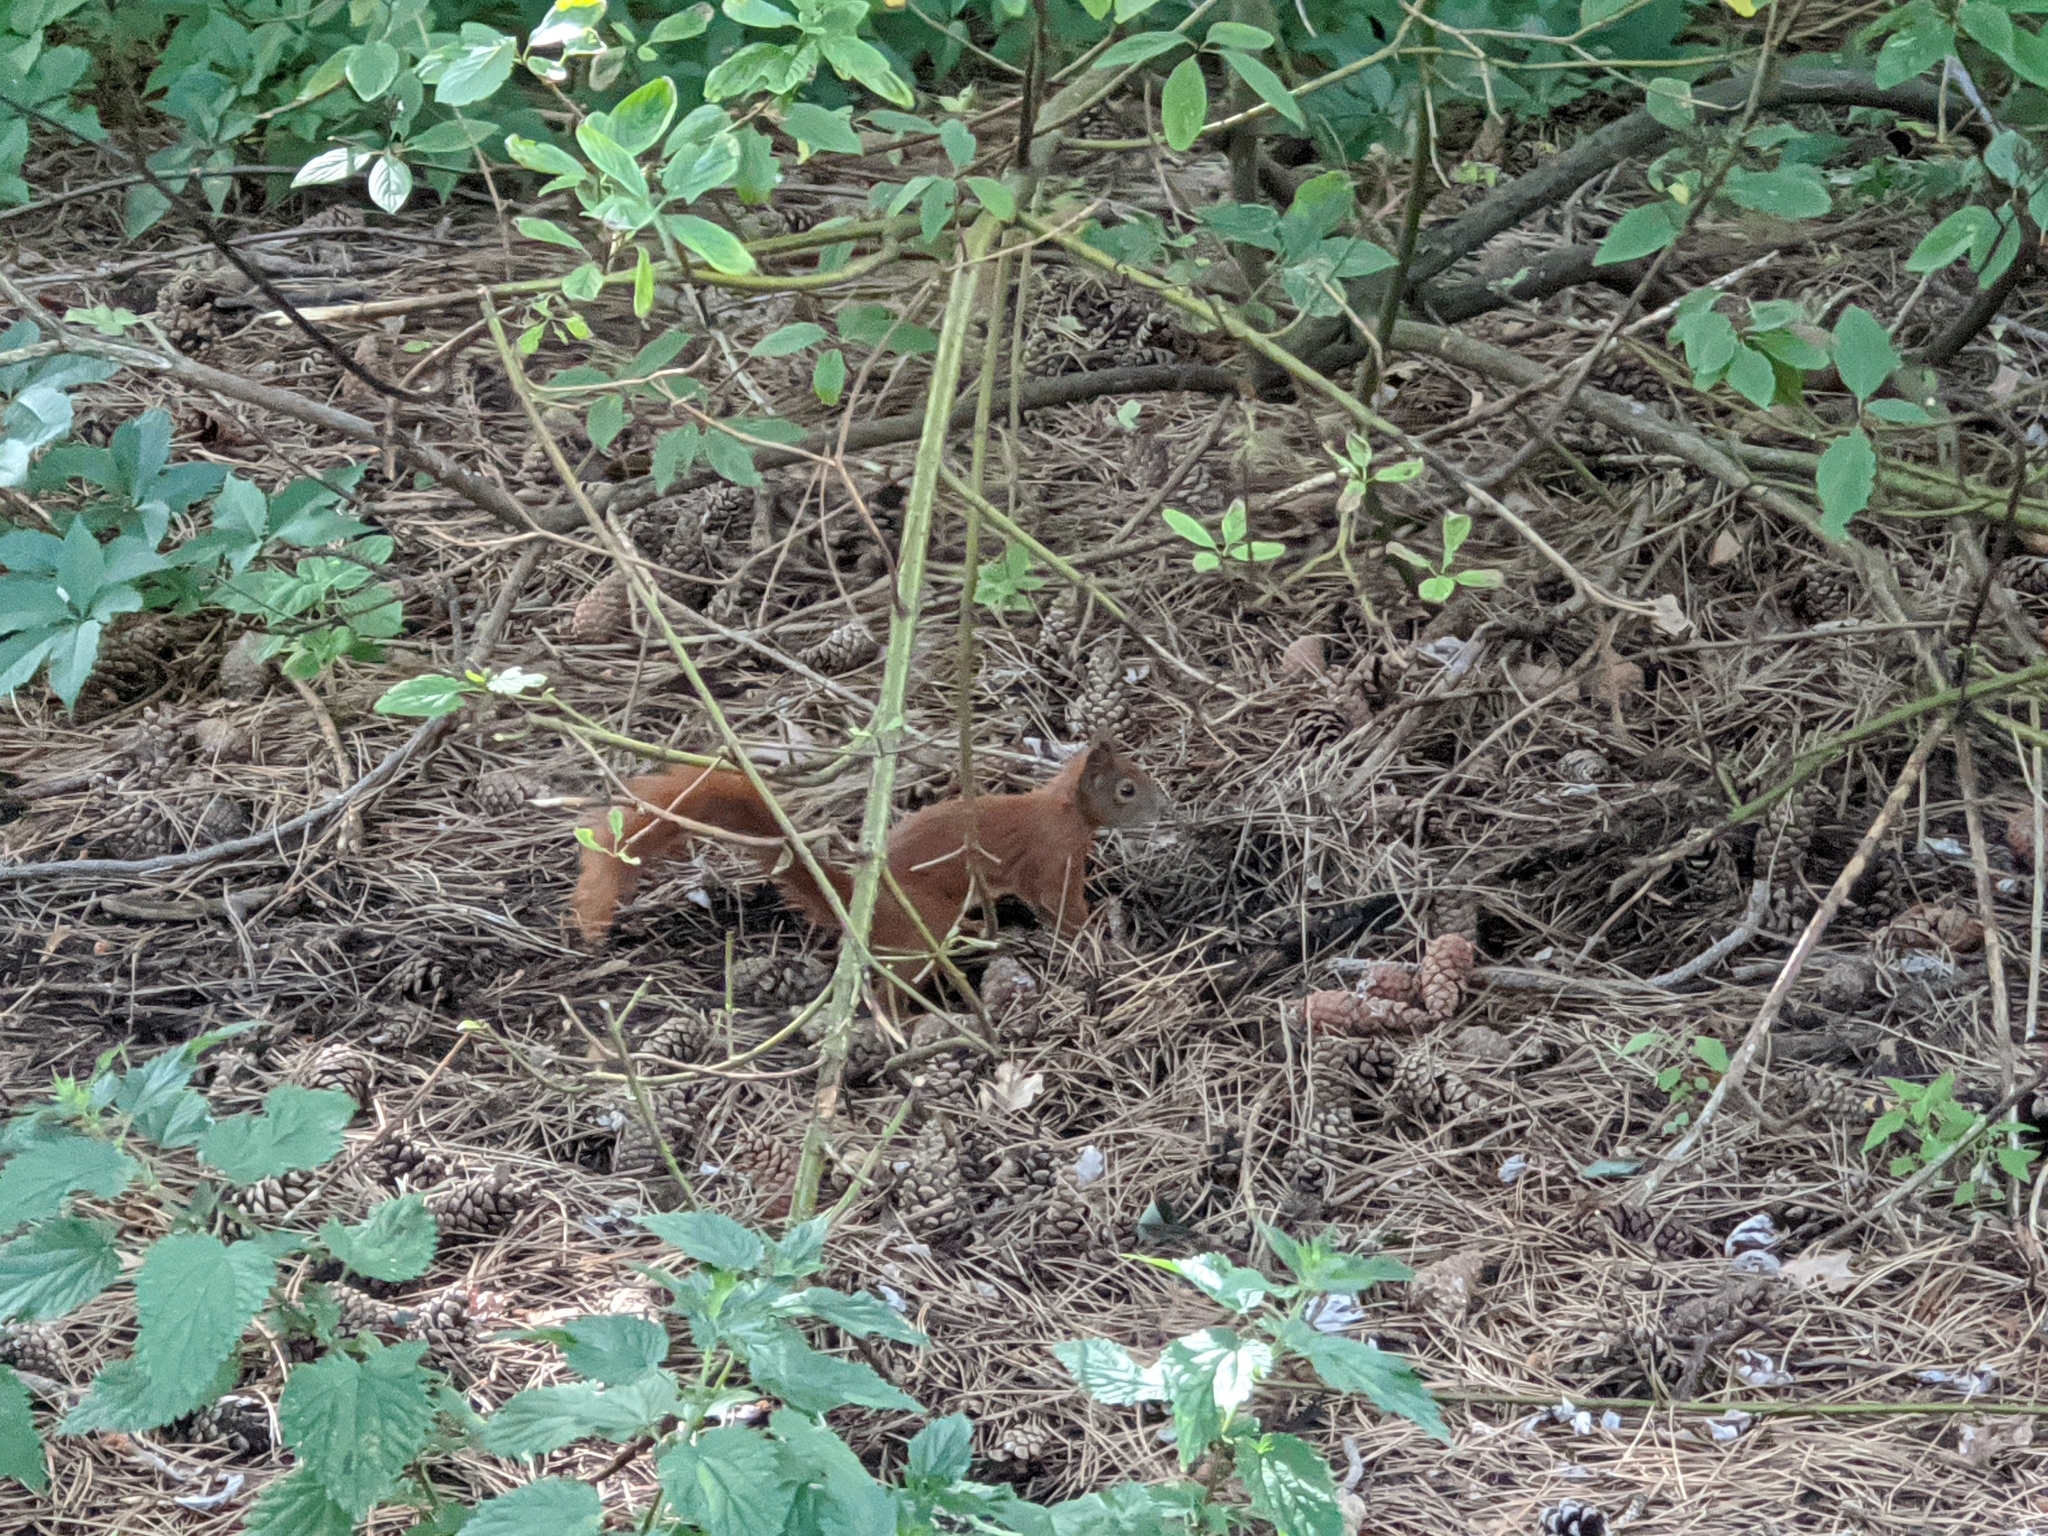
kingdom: Animalia
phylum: Chordata
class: Mammalia
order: Rodentia
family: Sciuridae
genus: Sciurus
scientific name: Sciurus vulgaris
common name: Eurasian red squirrel
